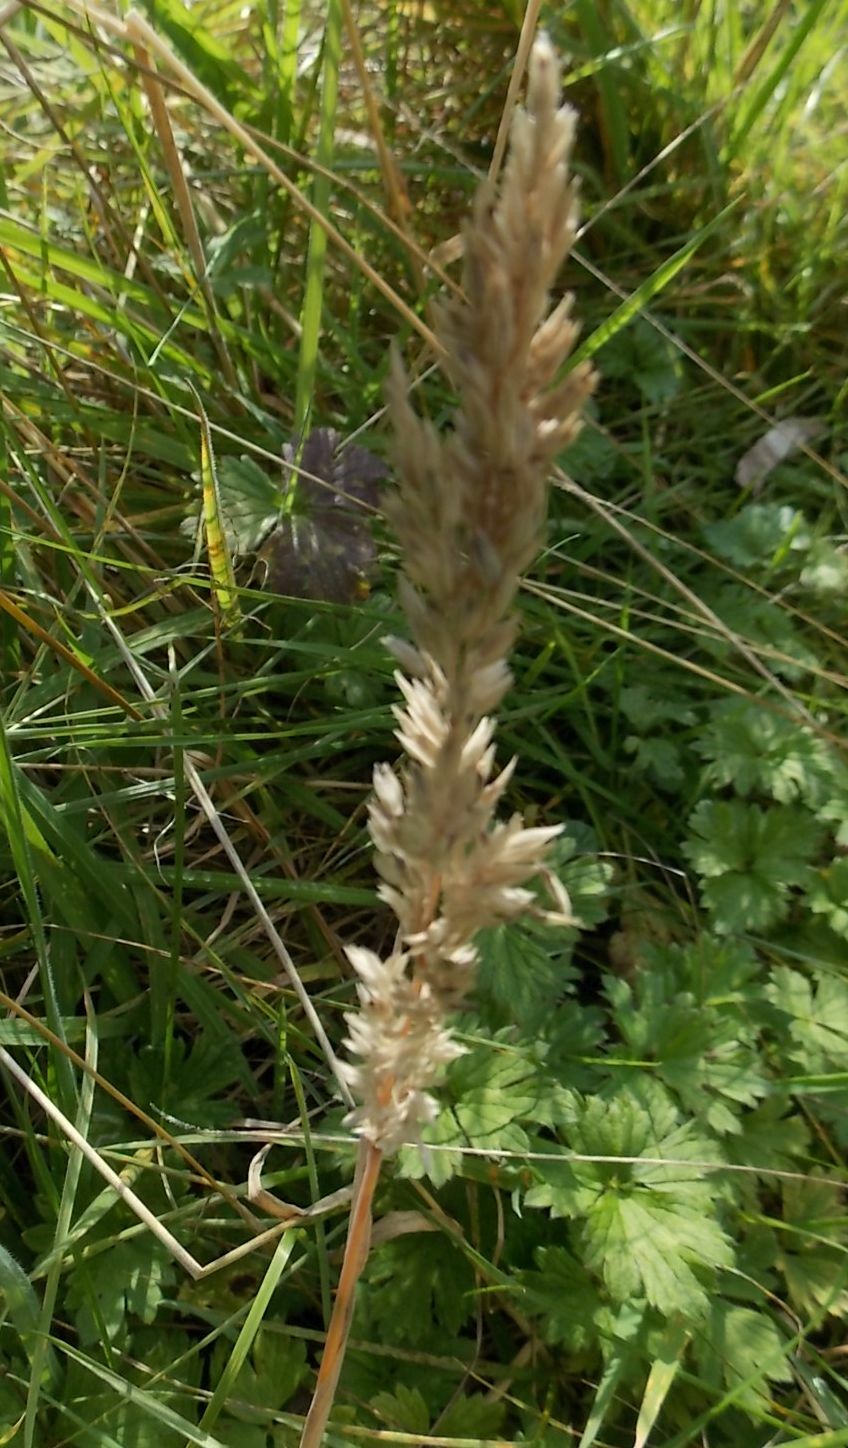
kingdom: Plantae
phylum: Tracheophyta
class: Liliopsida
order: Poales
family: Poaceae
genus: Holcus
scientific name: Holcus lanatus
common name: Yorkshire-fog
